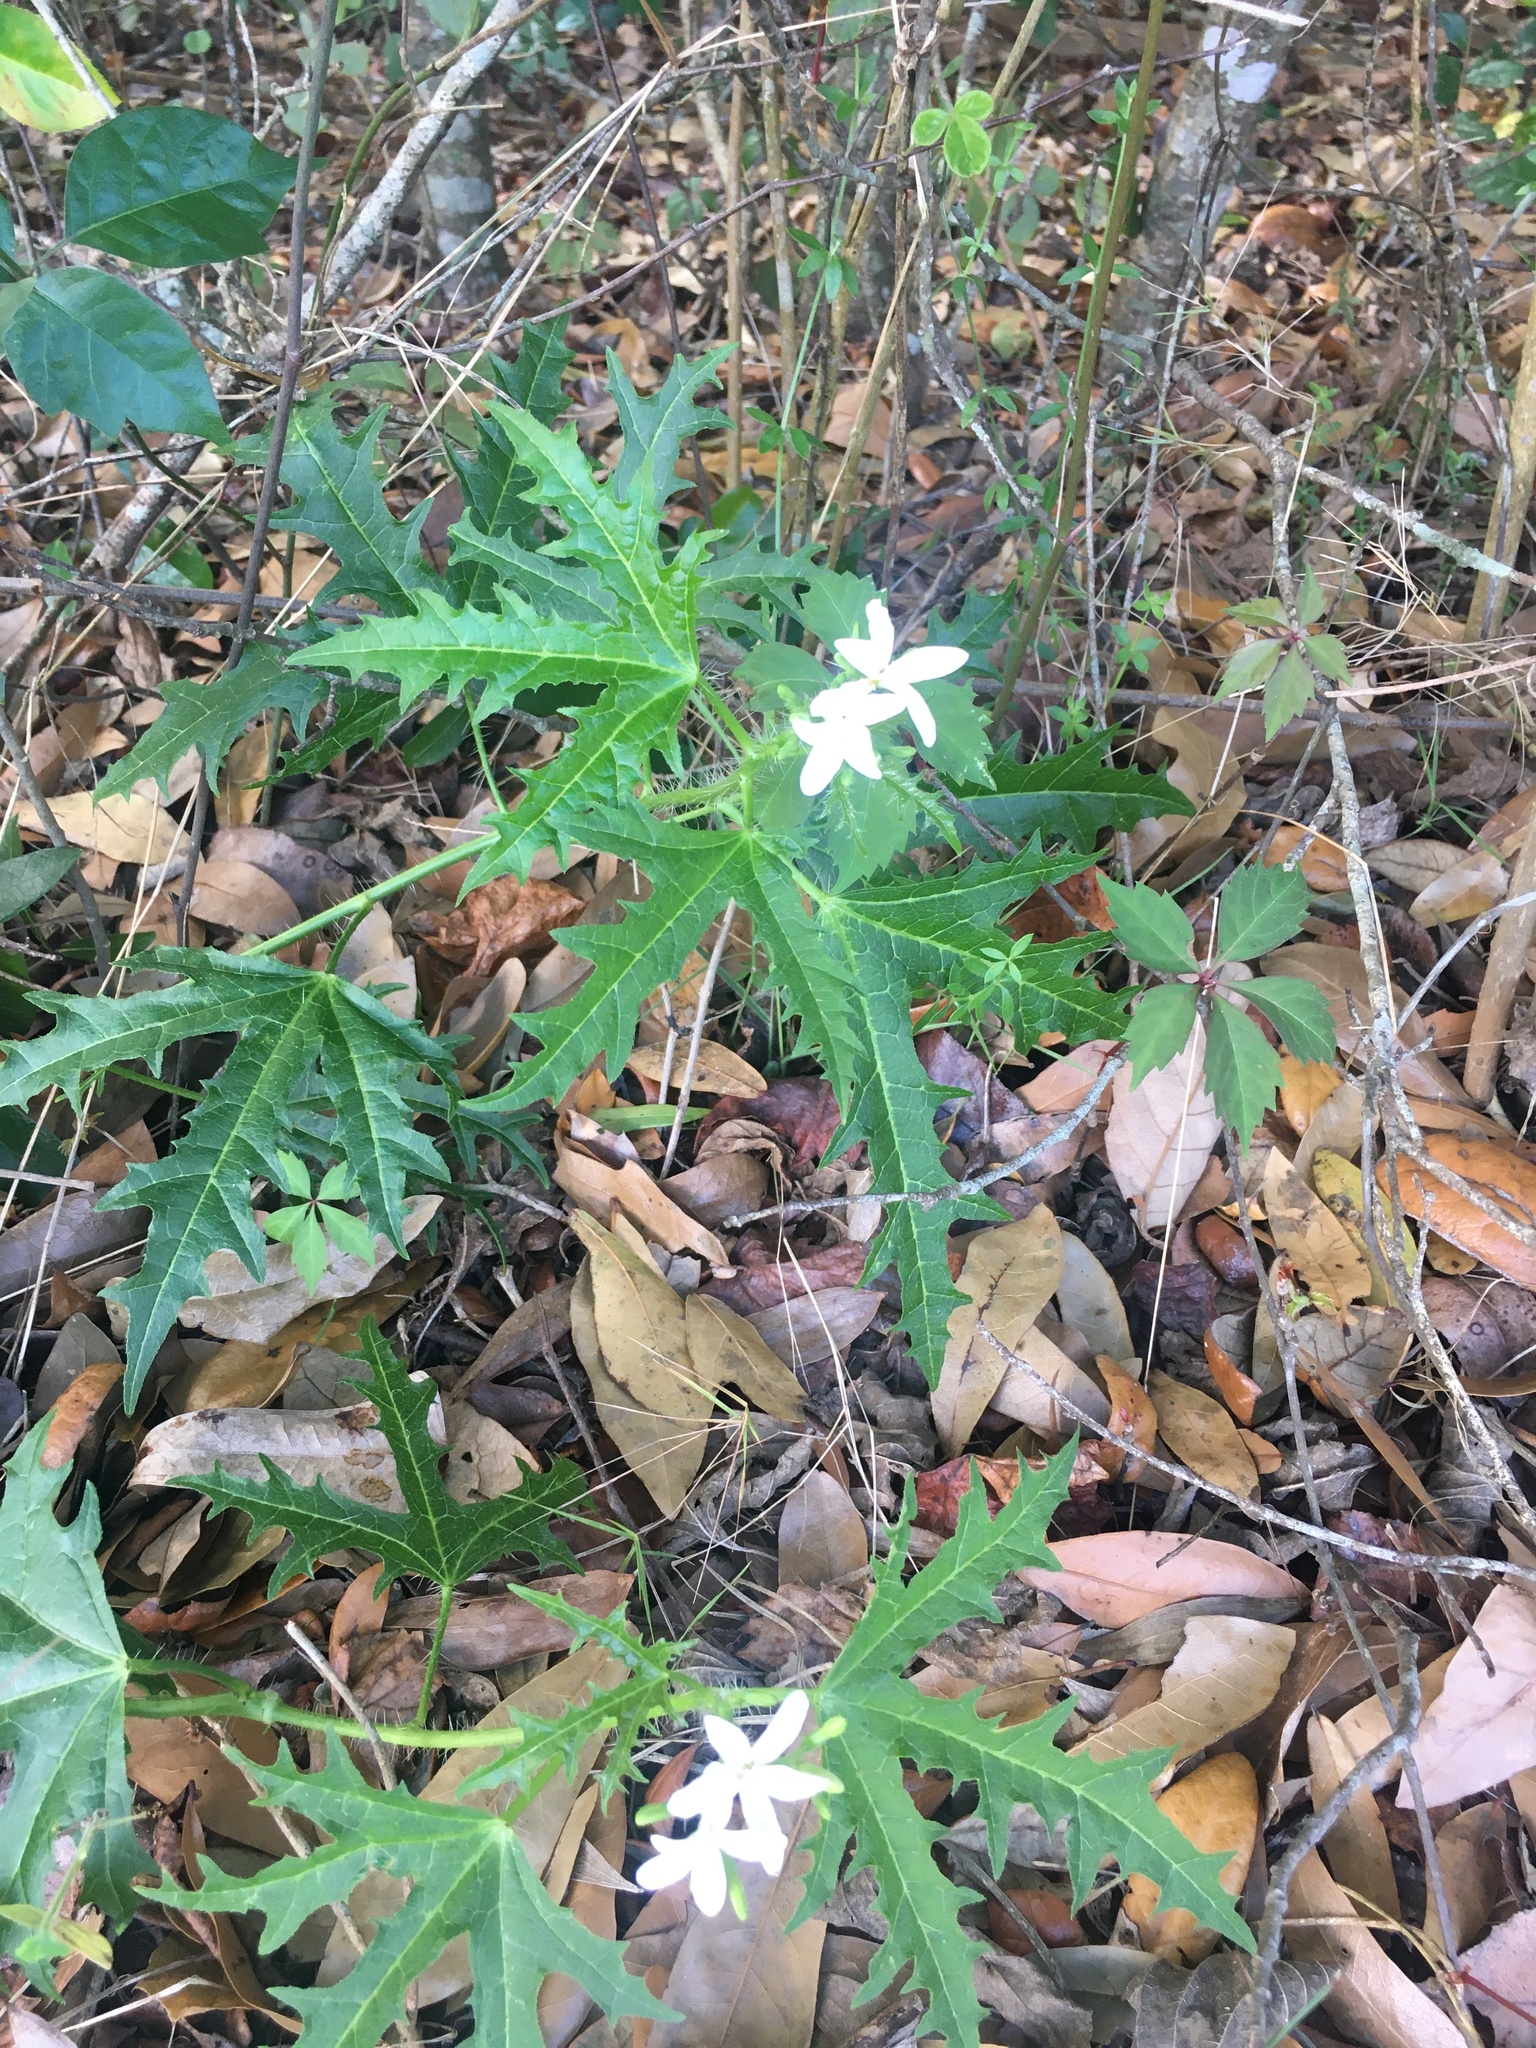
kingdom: Plantae
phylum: Tracheophyta
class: Magnoliopsida
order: Malpighiales
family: Euphorbiaceae
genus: Cnidoscolus
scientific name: Cnidoscolus stimulosus
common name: Bull-nettle
